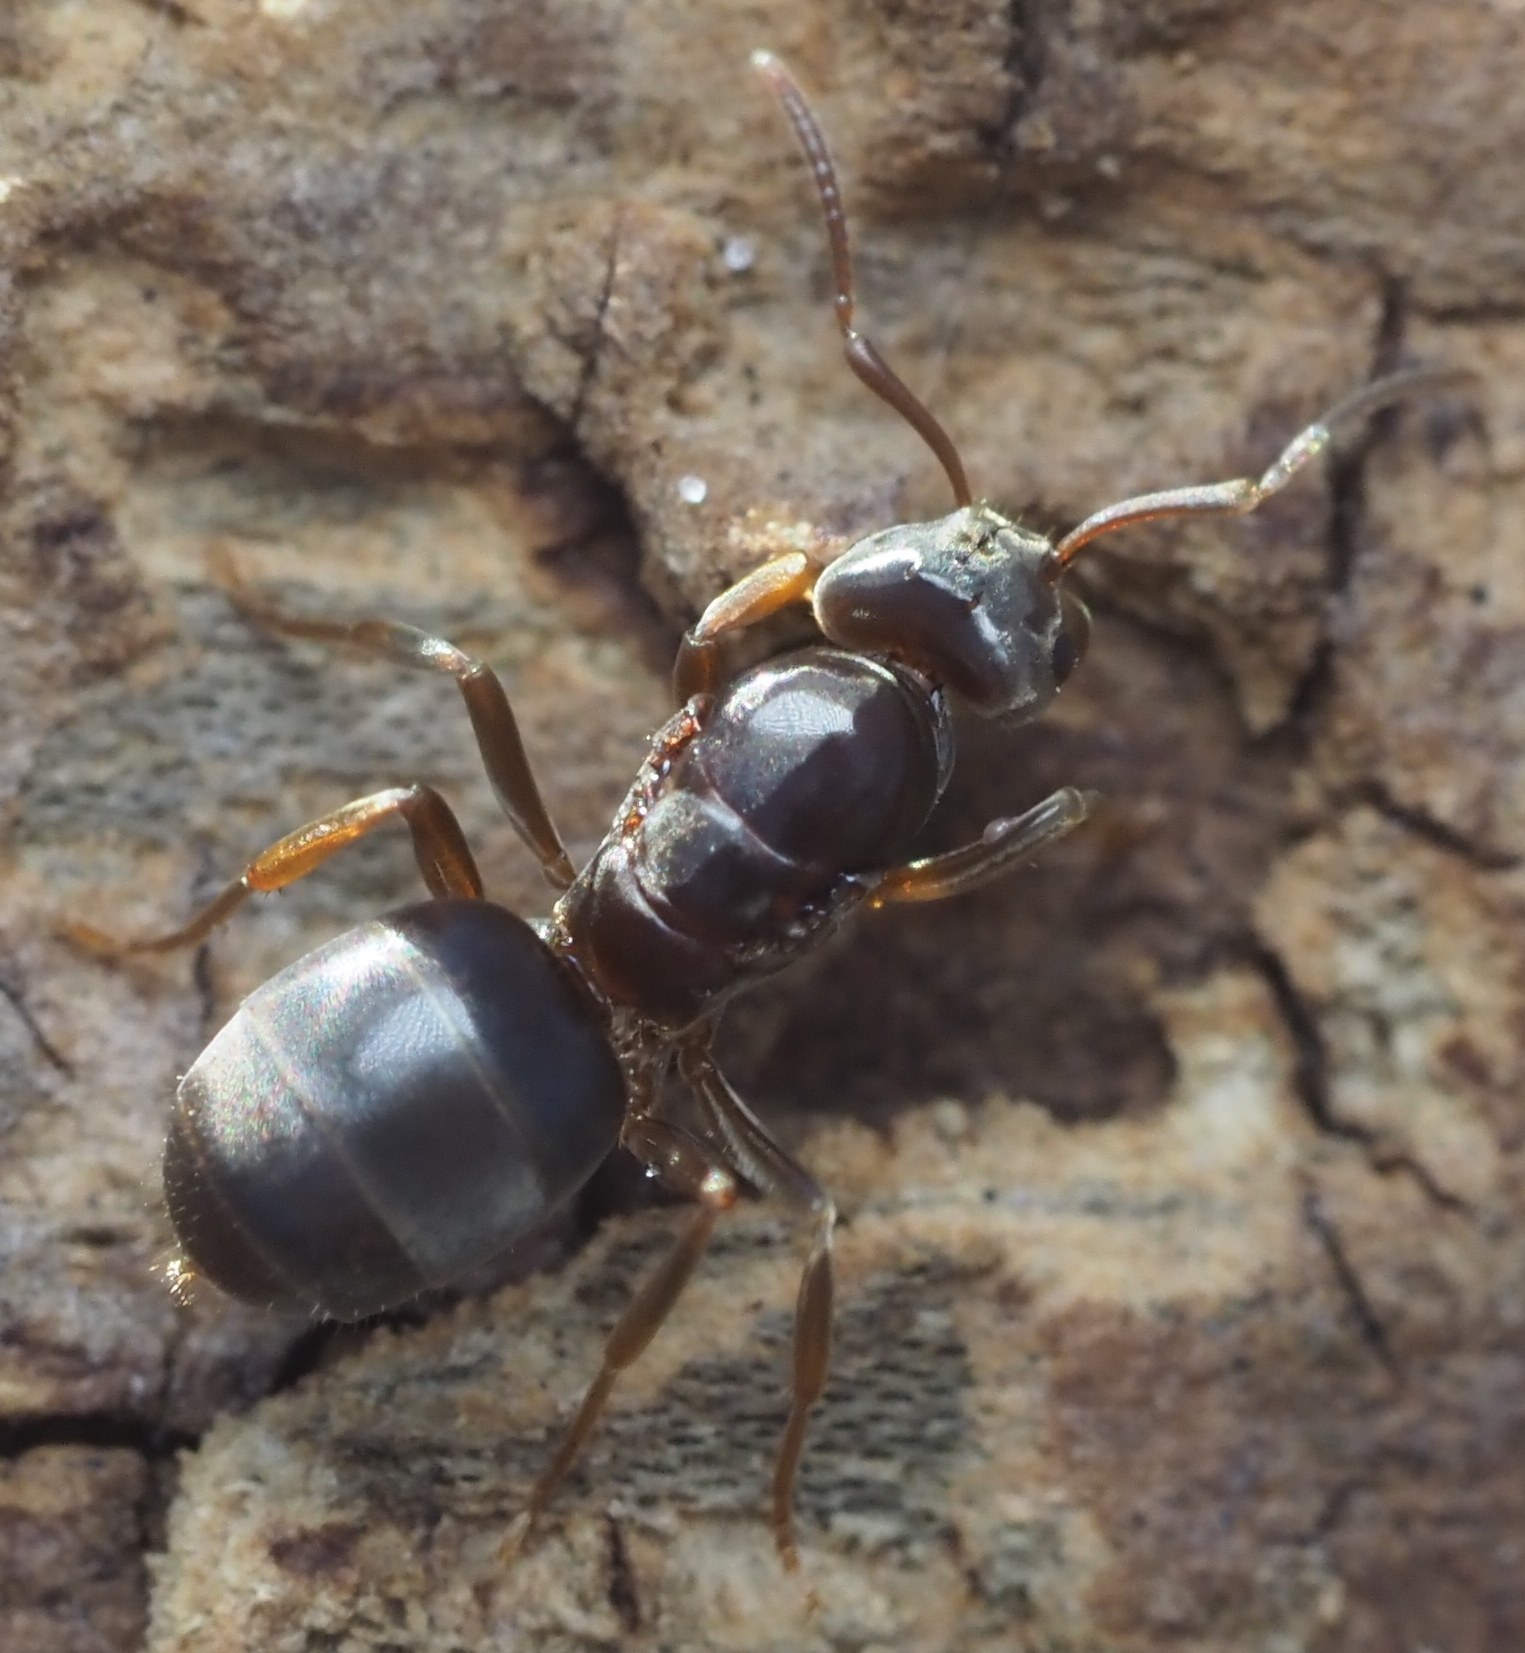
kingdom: Animalia
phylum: Arthropoda
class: Insecta
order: Hymenoptera
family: Formicidae
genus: Lasius
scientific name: Lasius aphidicola
